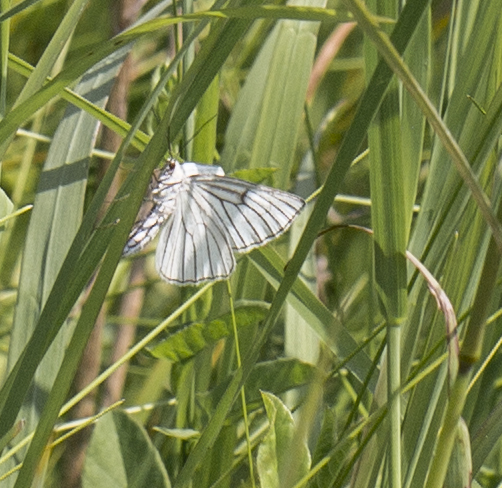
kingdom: Animalia
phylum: Arthropoda
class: Insecta
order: Lepidoptera
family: Geometridae
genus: Siona
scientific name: Siona lineata
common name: Black-veined moth
